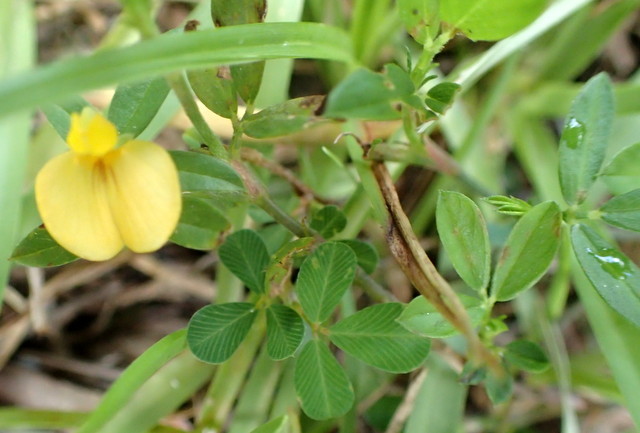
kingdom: Plantae
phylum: Tracheophyta
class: Magnoliopsida
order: Fabales
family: Fabaceae
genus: Stylosanthes
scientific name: Stylosanthes biflora
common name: Two-flower pencil-flower
